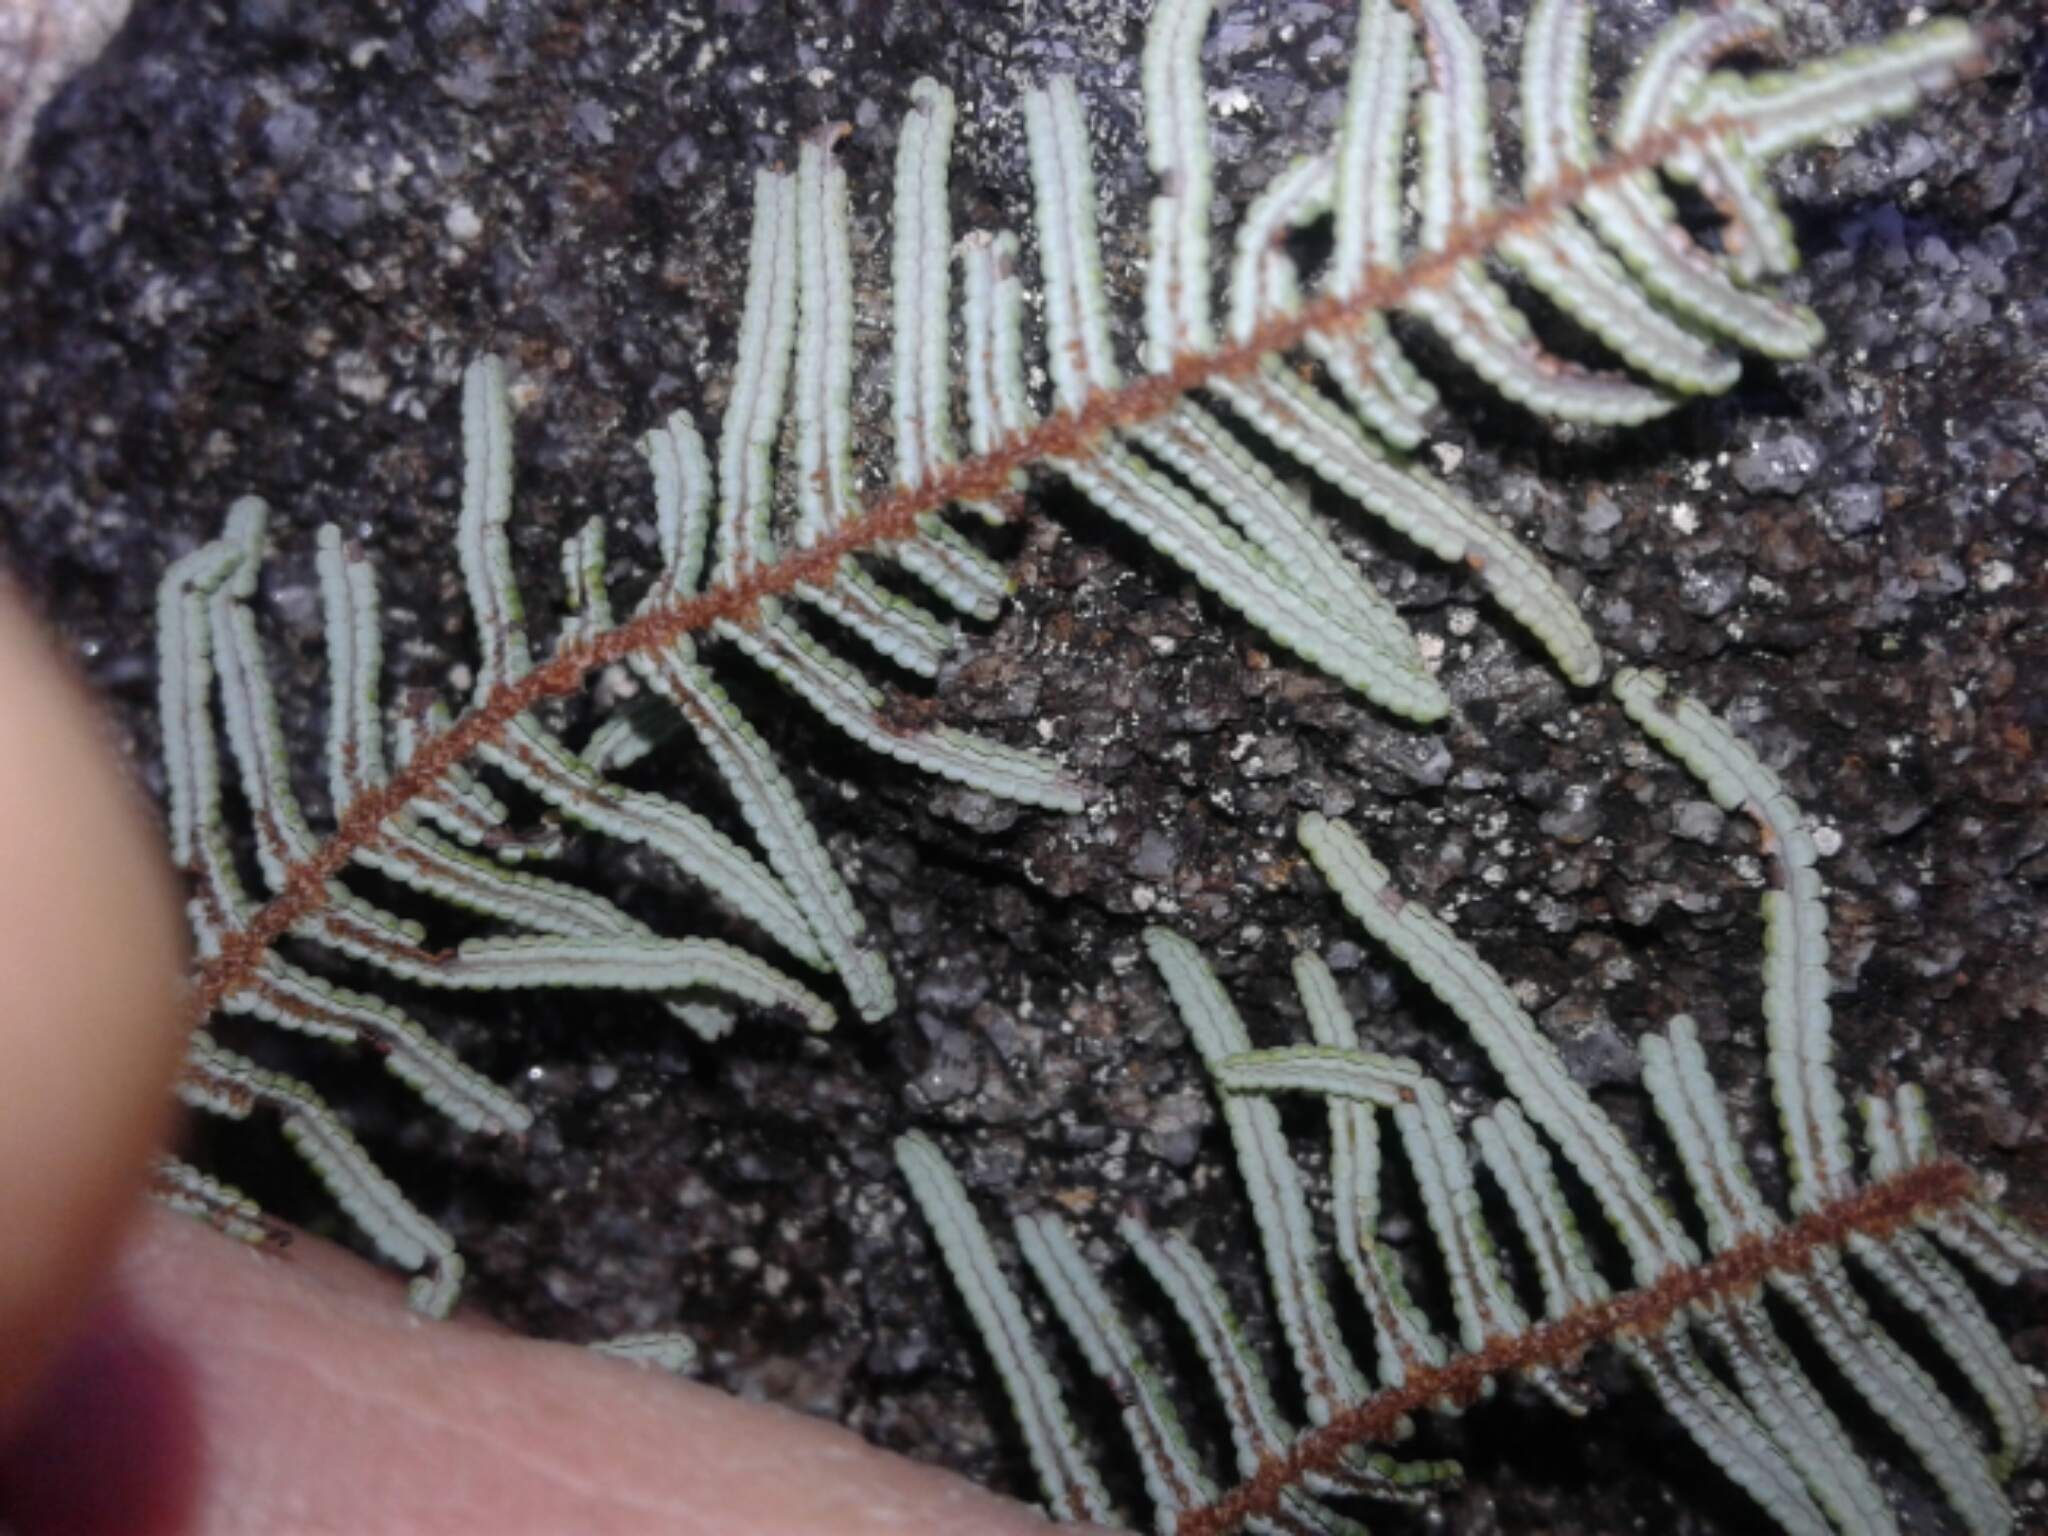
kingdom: Plantae
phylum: Tracheophyta
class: Polypodiopsida
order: Gleicheniales
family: Gleicheniaceae
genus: Gleichenia
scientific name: Gleichenia dicarpa
